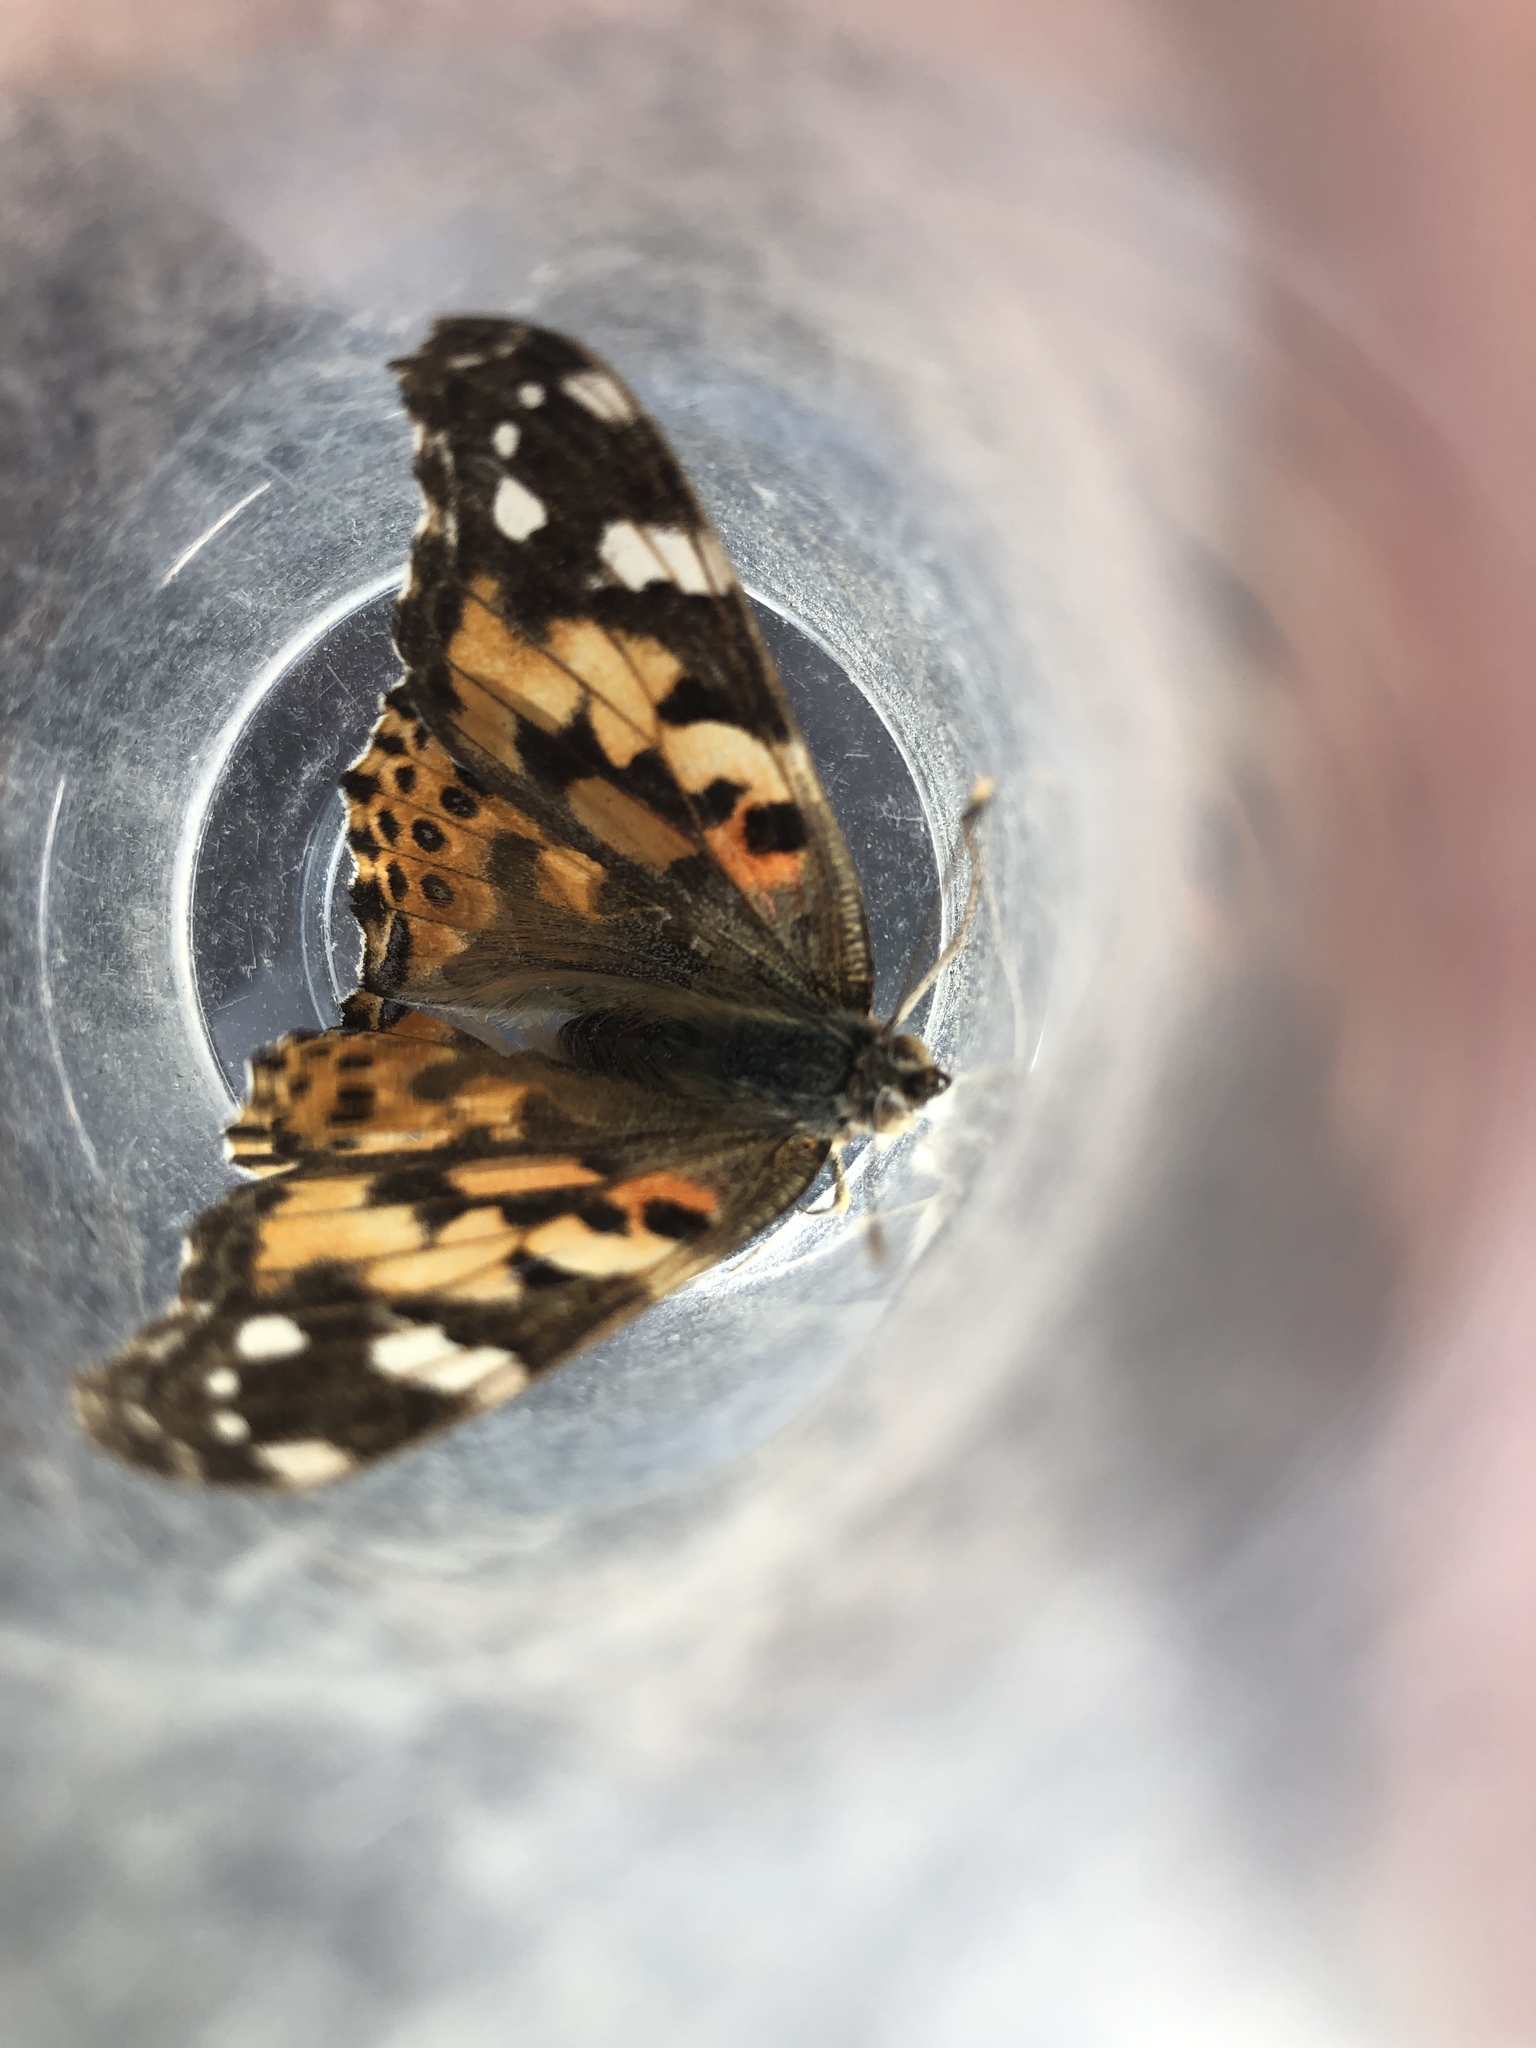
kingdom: Animalia
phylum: Arthropoda
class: Insecta
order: Lepidoptera
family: Nymphalidae
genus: Vanessa
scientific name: Vanessa cardui
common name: Painted lady
